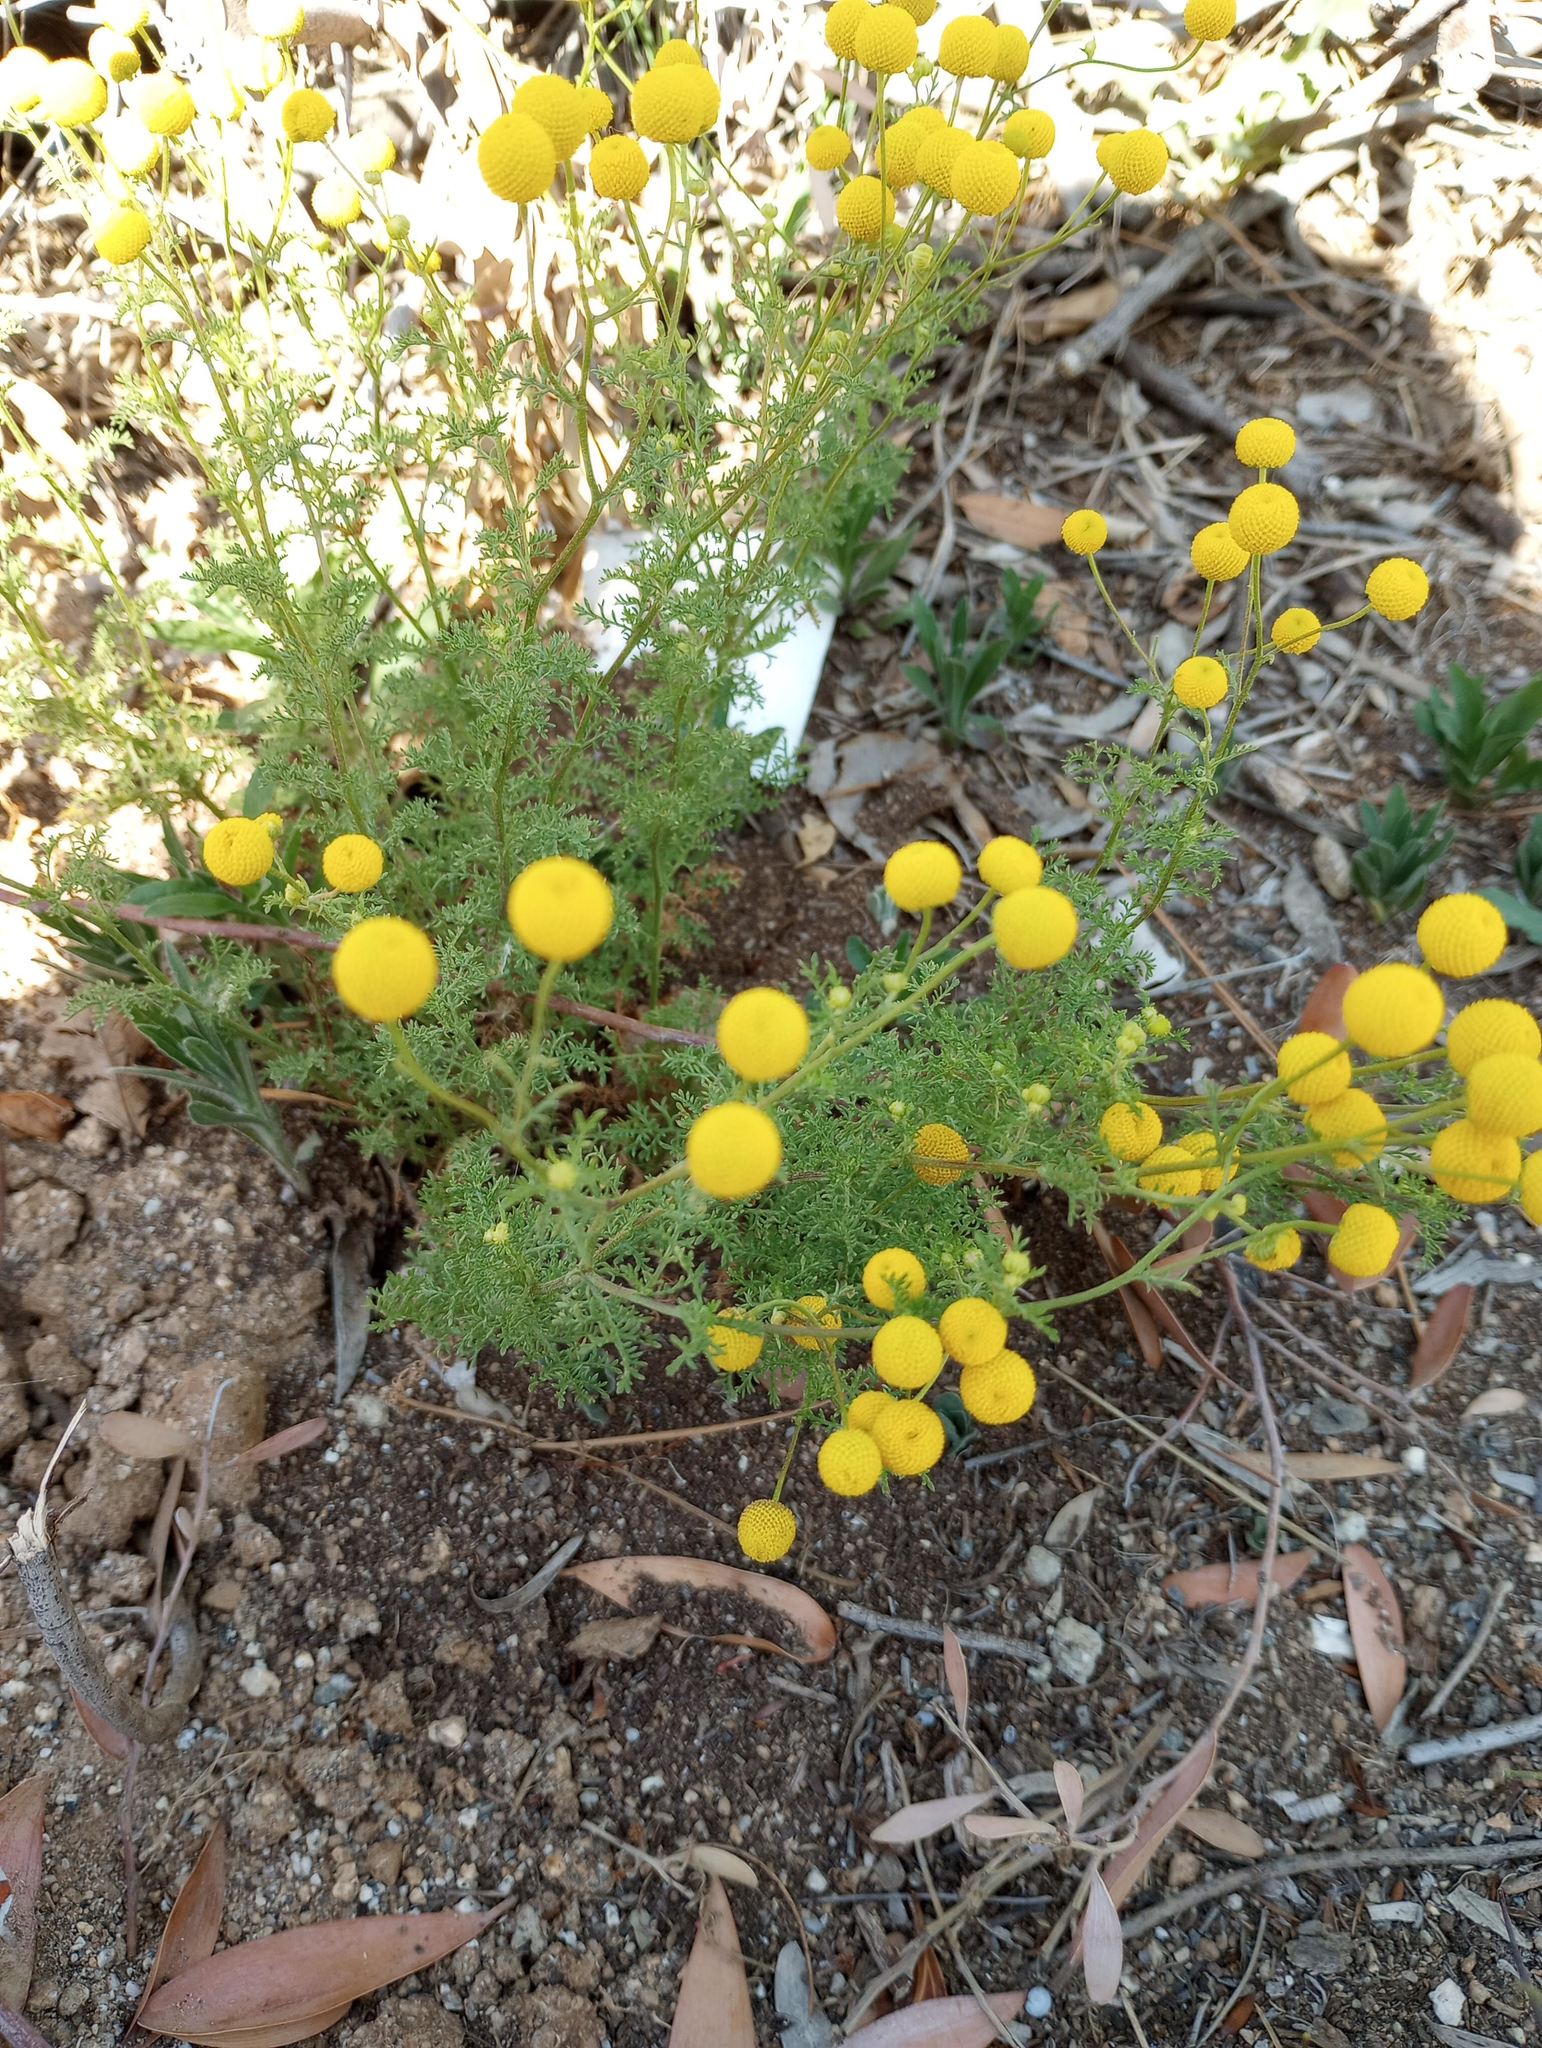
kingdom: Plantae
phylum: Tracheophyta
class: Magnoliopsida
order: Asterales
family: Asteraceae
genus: Oncosiphon
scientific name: Oncosiphon pilulifer
